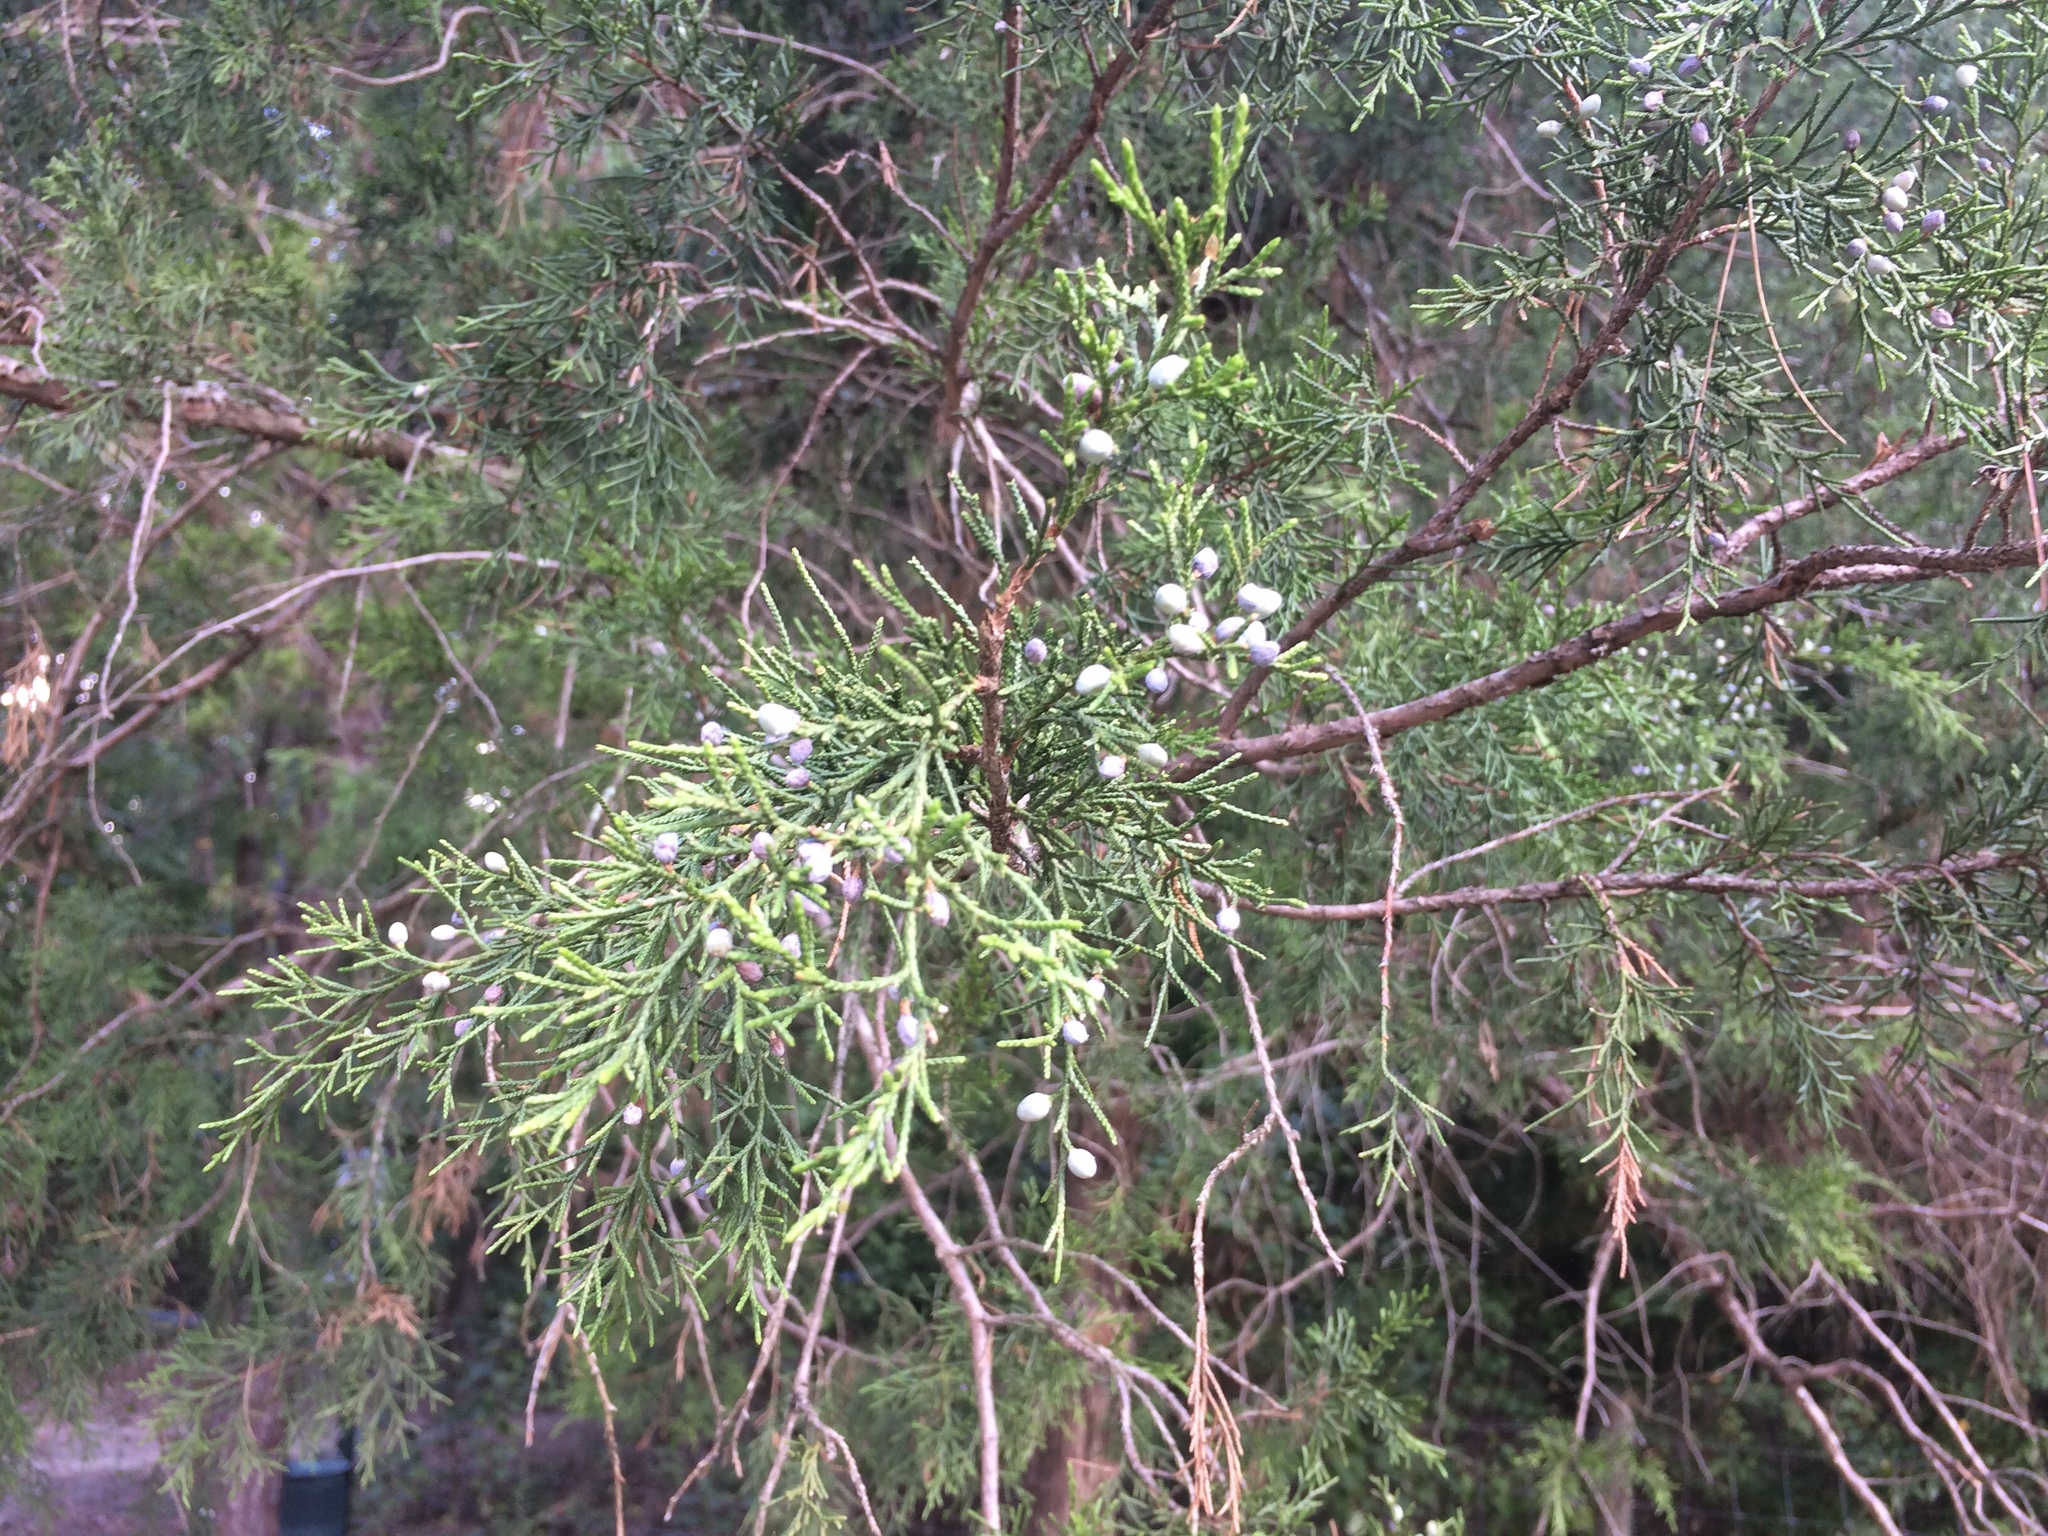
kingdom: Plantae
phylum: Tracheophyta
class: Pinopsida
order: Pinales
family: Cupressaceae
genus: Juniperus
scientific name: Juniperus virginiana
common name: Red juniper
